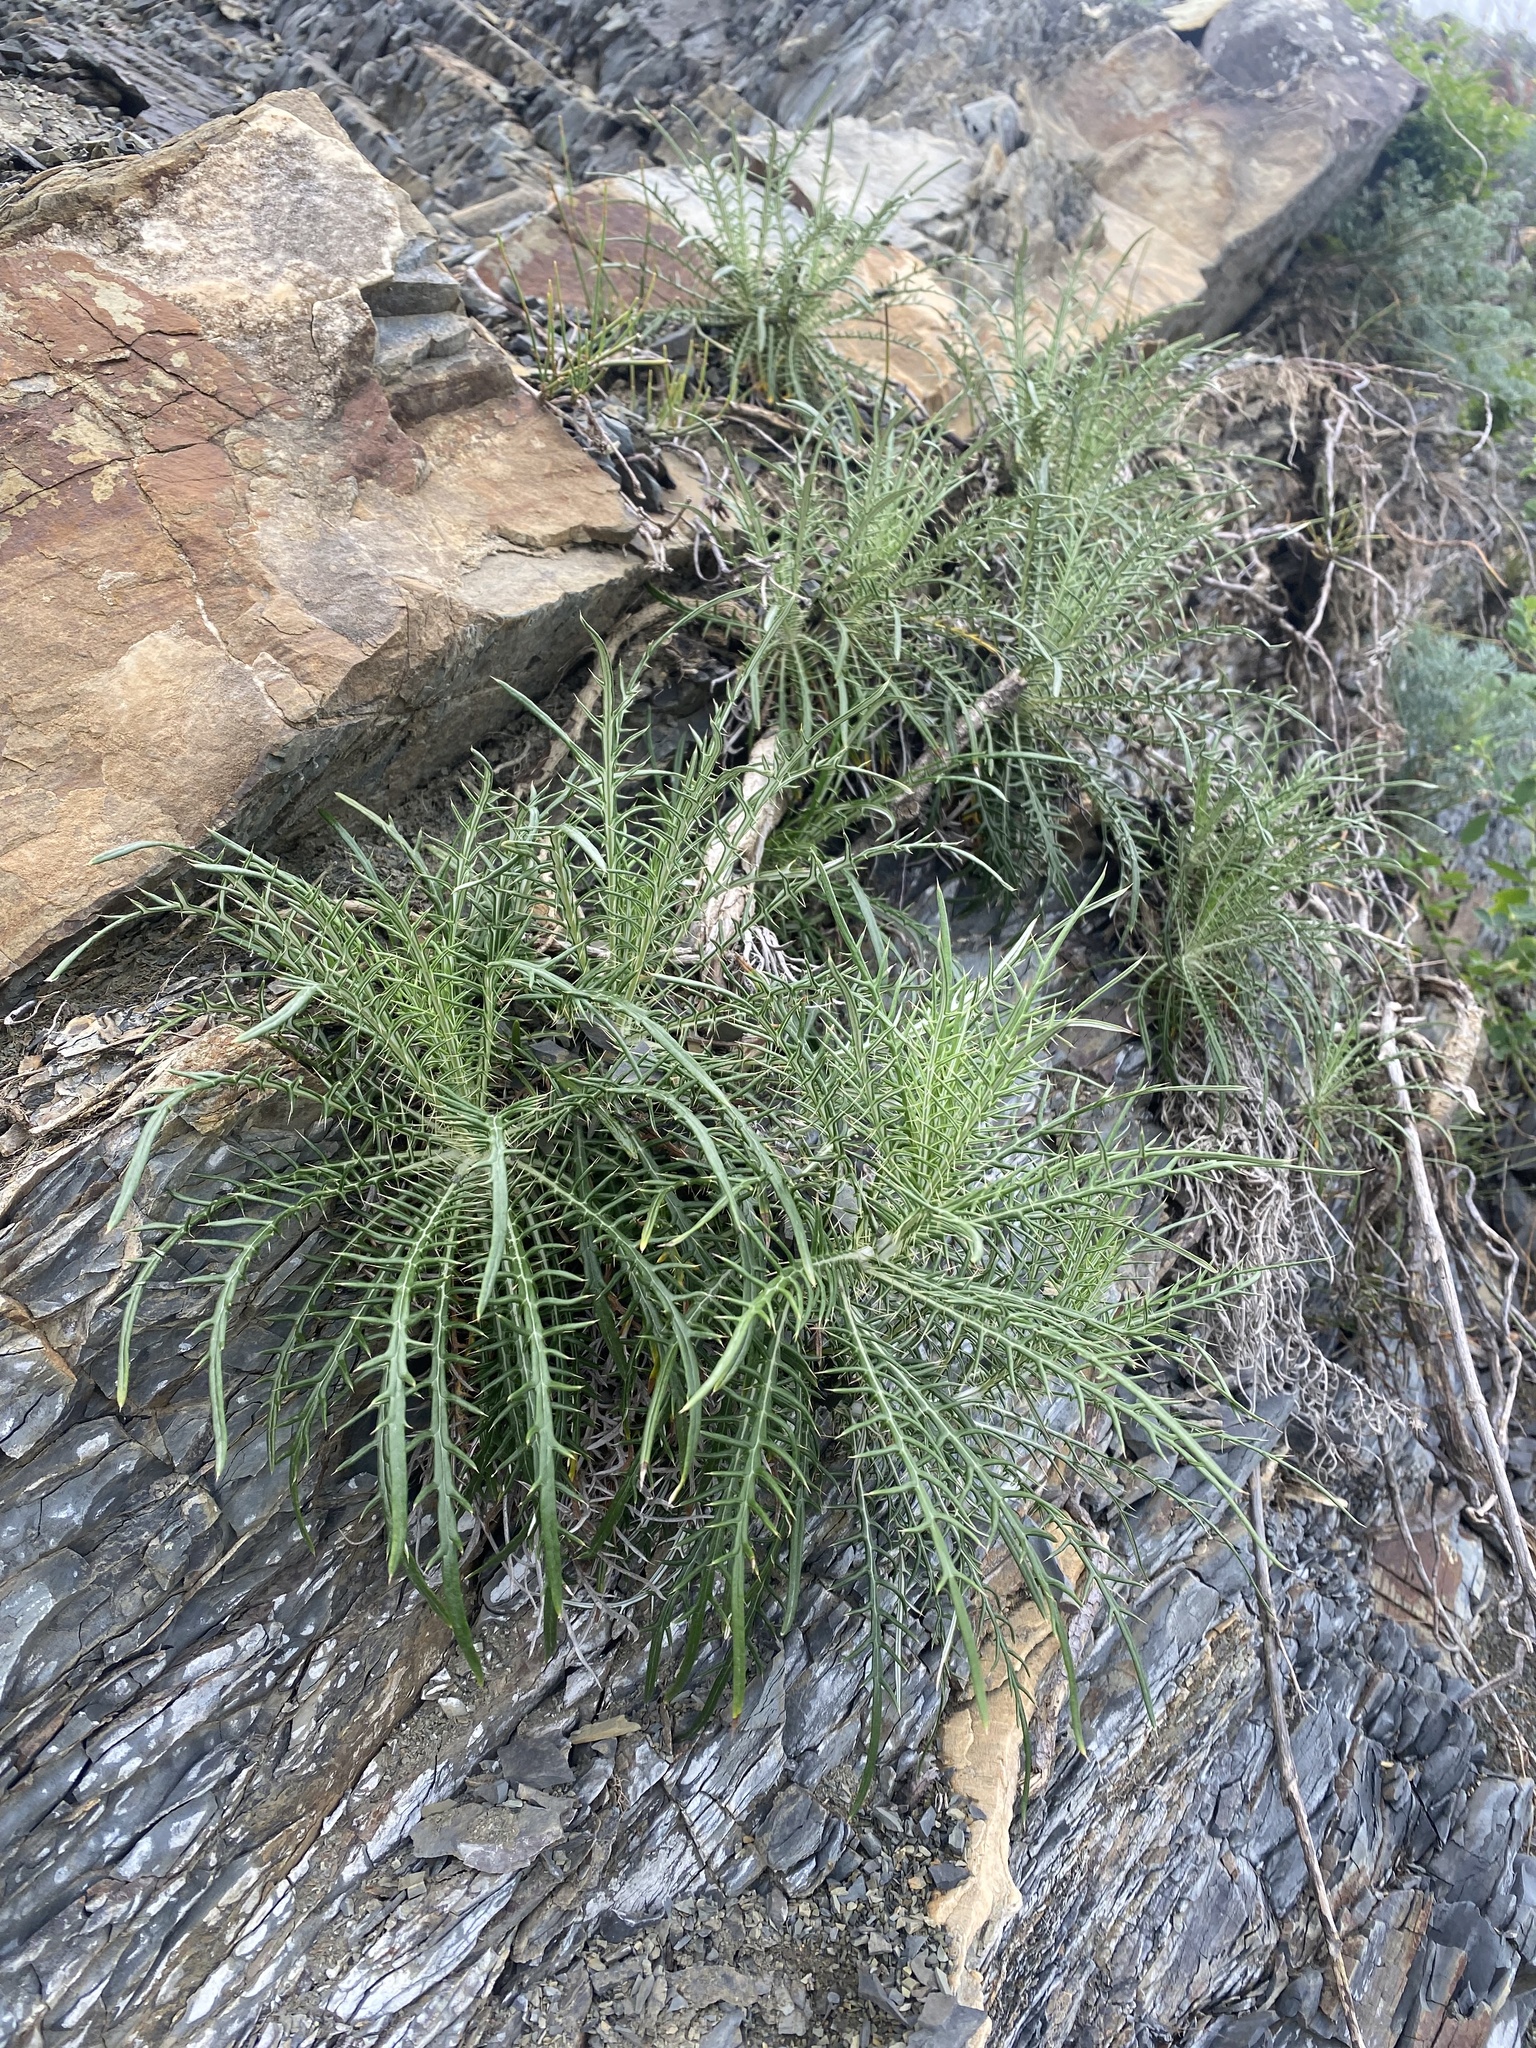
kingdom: Plantae
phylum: Tracheophyta
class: Magnoliopsida
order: Asterales
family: Asteraceae
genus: Ptilostemon
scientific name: Ptilostemon echinocephalus
